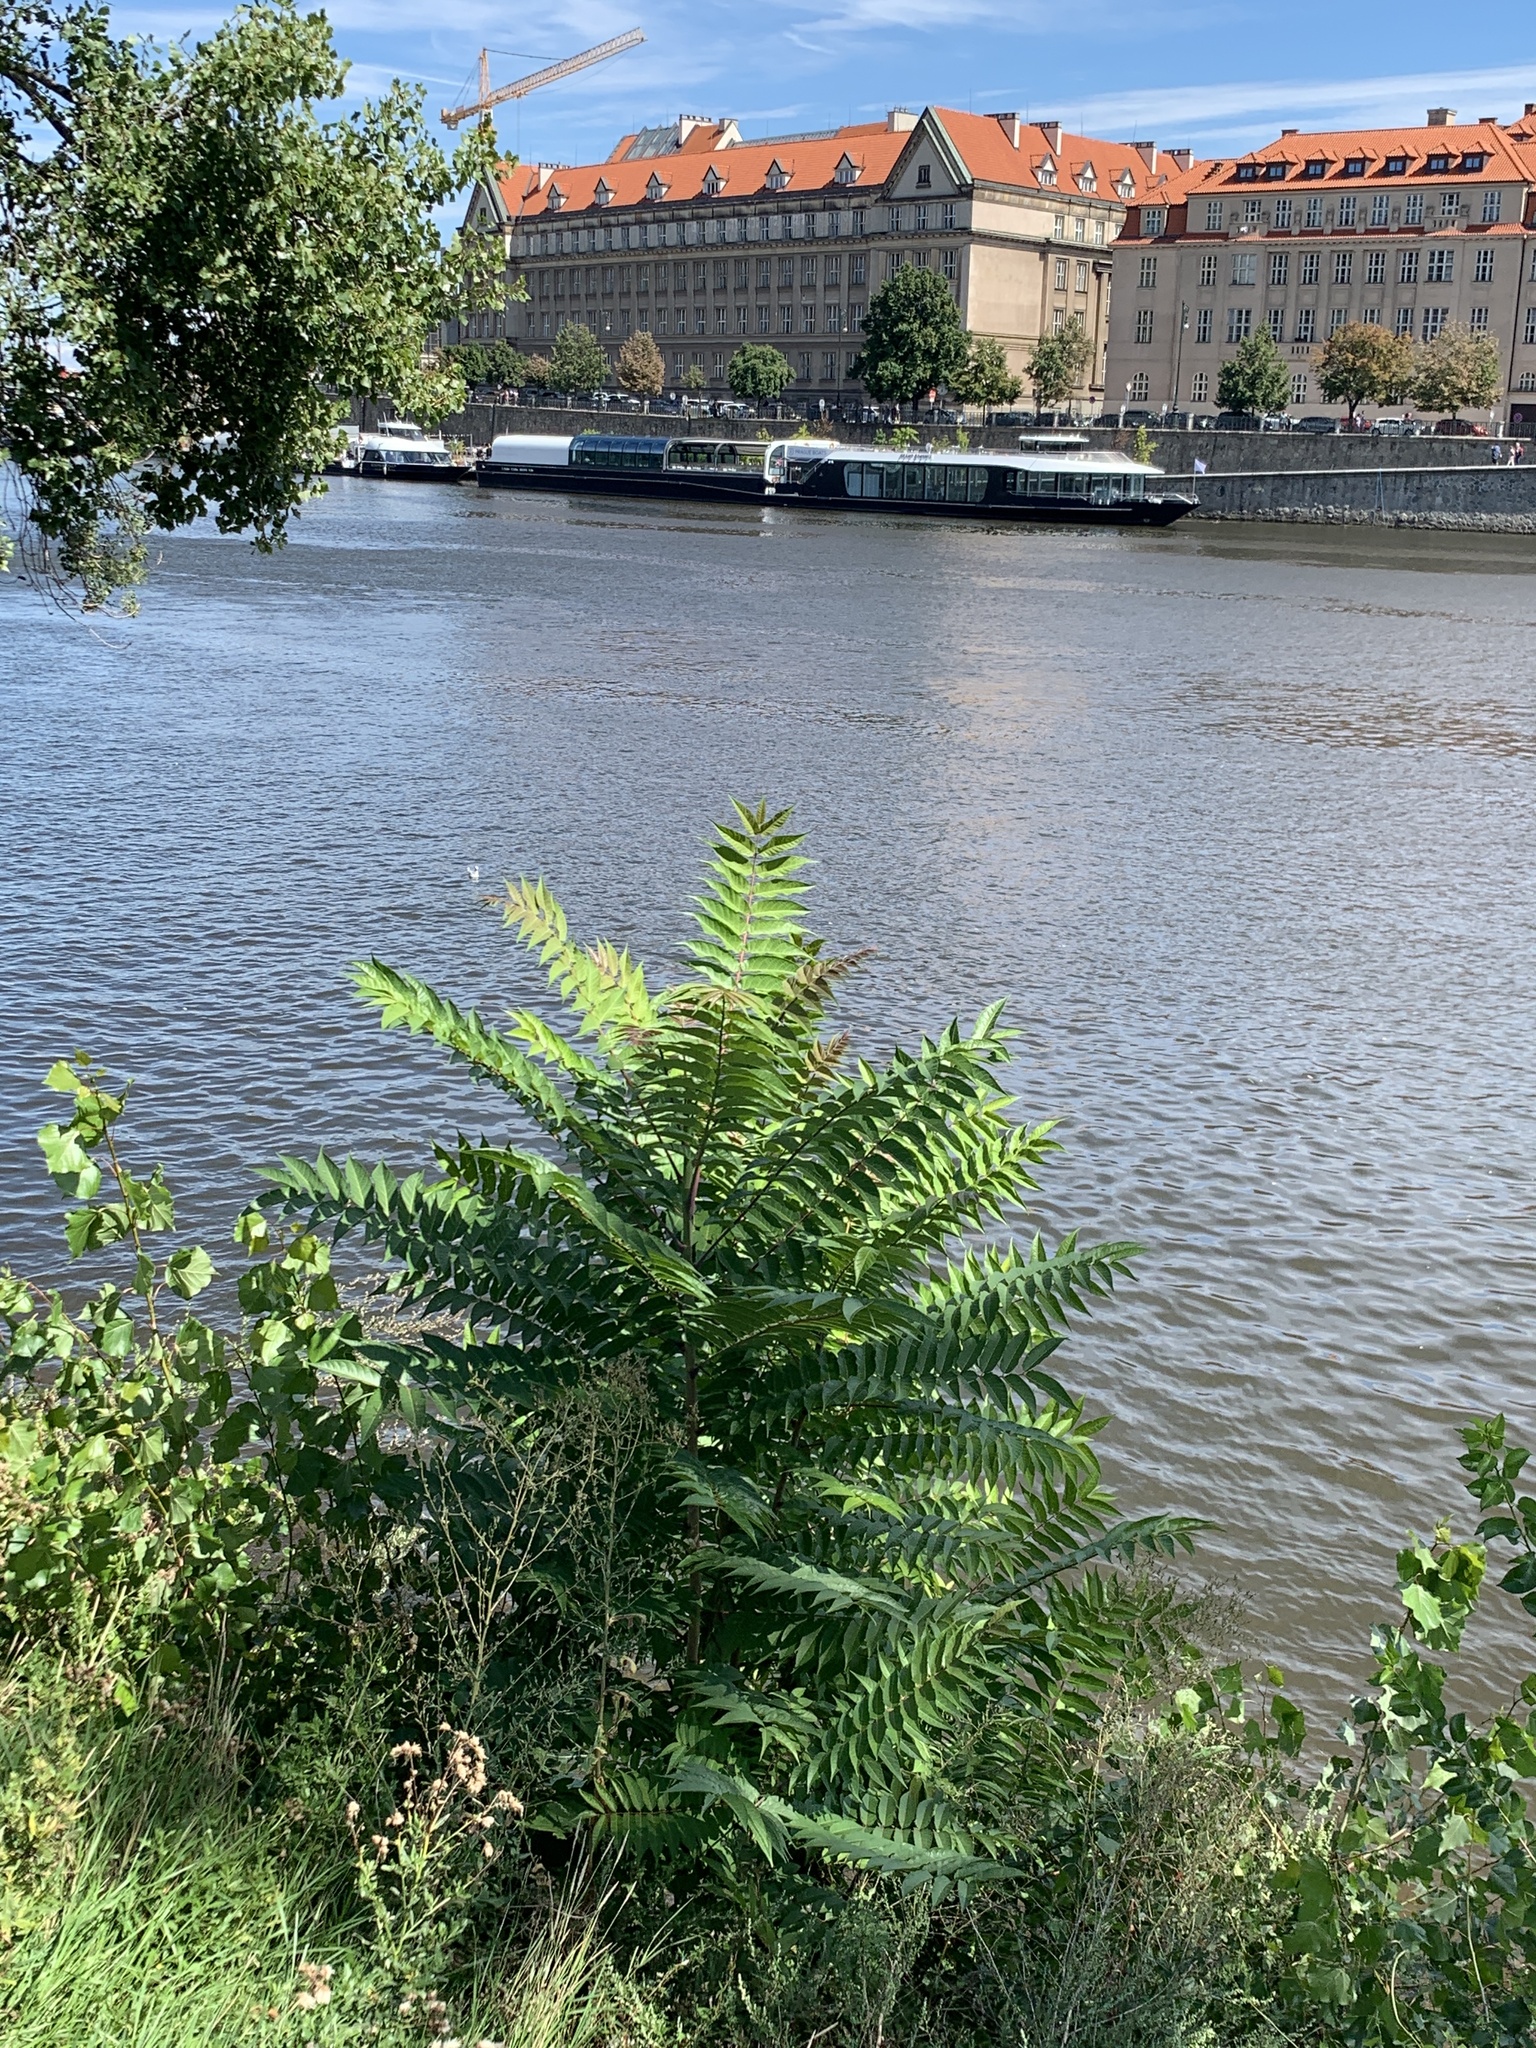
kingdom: Plantae
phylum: Tracheophyta
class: Magnoliopsida
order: Sapindales
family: Simaroubaceae
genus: Ailanthus
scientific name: Ailanthus altissima
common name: Tree-of-heaven
